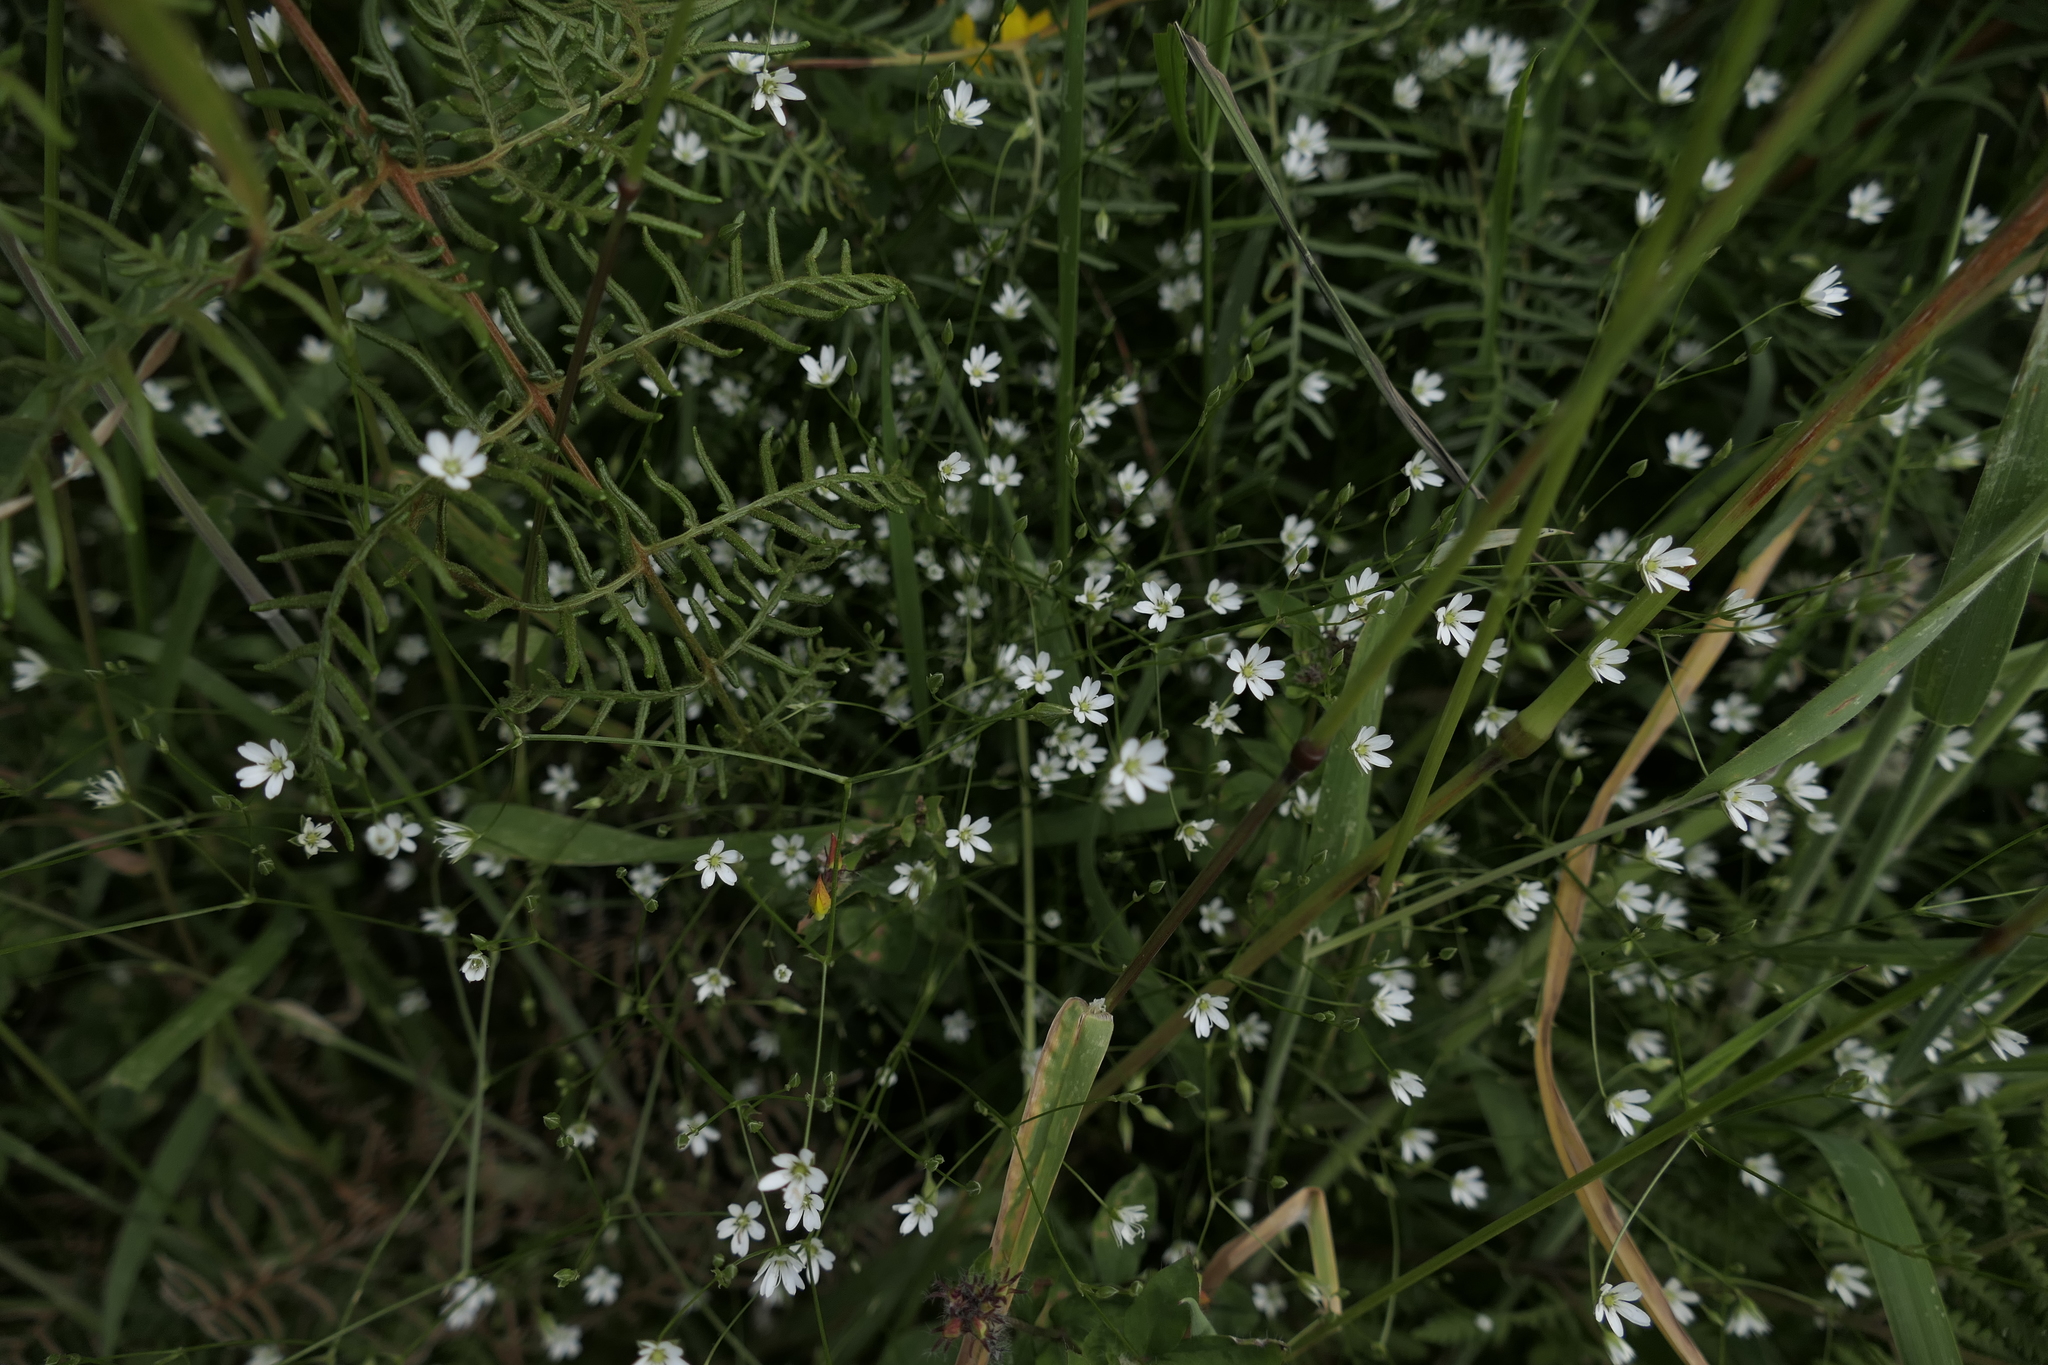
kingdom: Plantae
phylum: Tracheophyta
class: Magnoliopsida
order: Caryophyllales
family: Caryophyllaceae
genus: Stellaria
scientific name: Stellaria graminea
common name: Grass-like starwort
